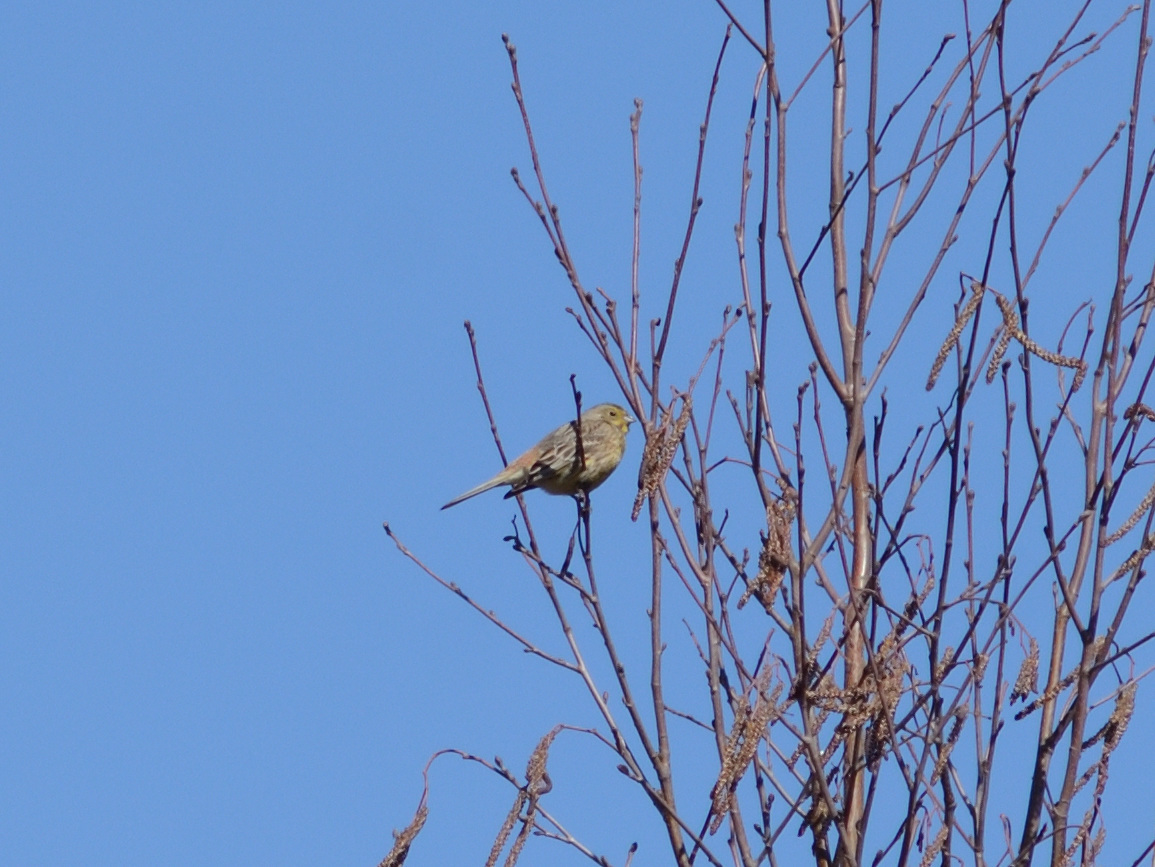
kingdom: Animalia
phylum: Chordata
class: Aves
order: Passeriformes
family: Emberizidae
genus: Emberiza
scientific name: Emberiza citrinella
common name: Yellowhammer
